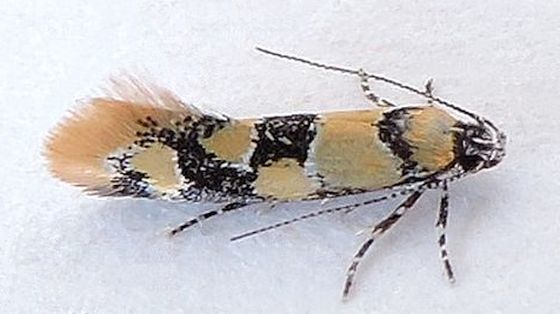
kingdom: Animalia
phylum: Arthropoda
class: Insecta
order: Lepidoptera
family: Oecophoridae
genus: Decantha
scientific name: Decantha stonda
